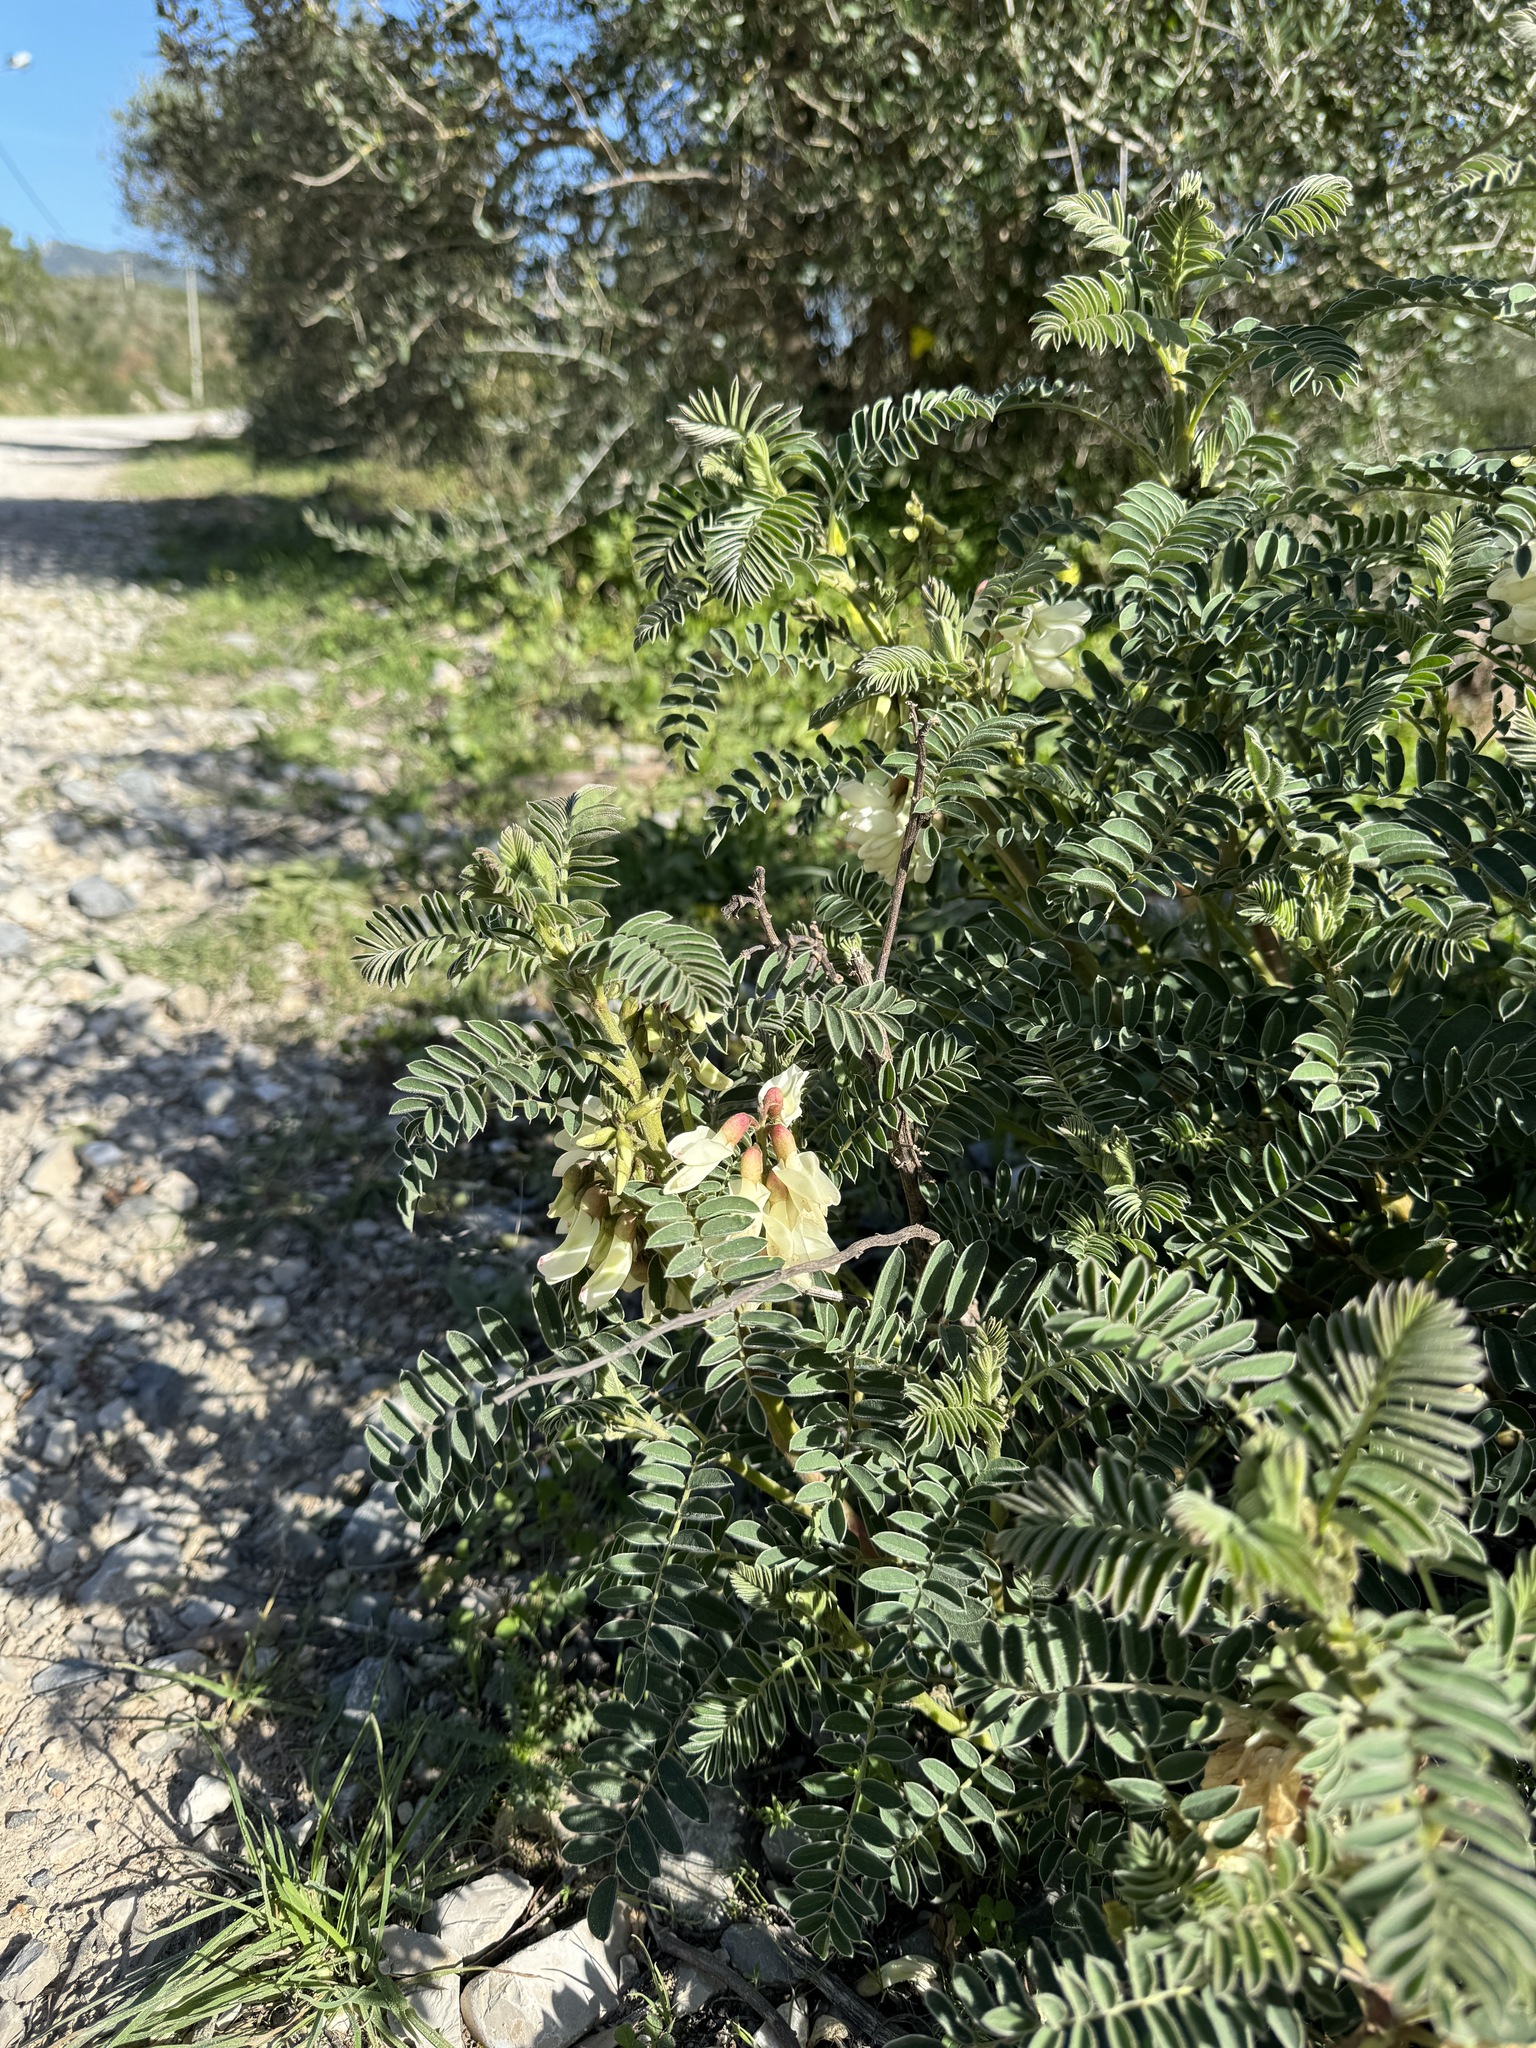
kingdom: Plantae
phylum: Tracheophyta
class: Magnoliopsida
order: Fabales
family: Fabaceae
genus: Erophaca
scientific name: Erophaca baetica
